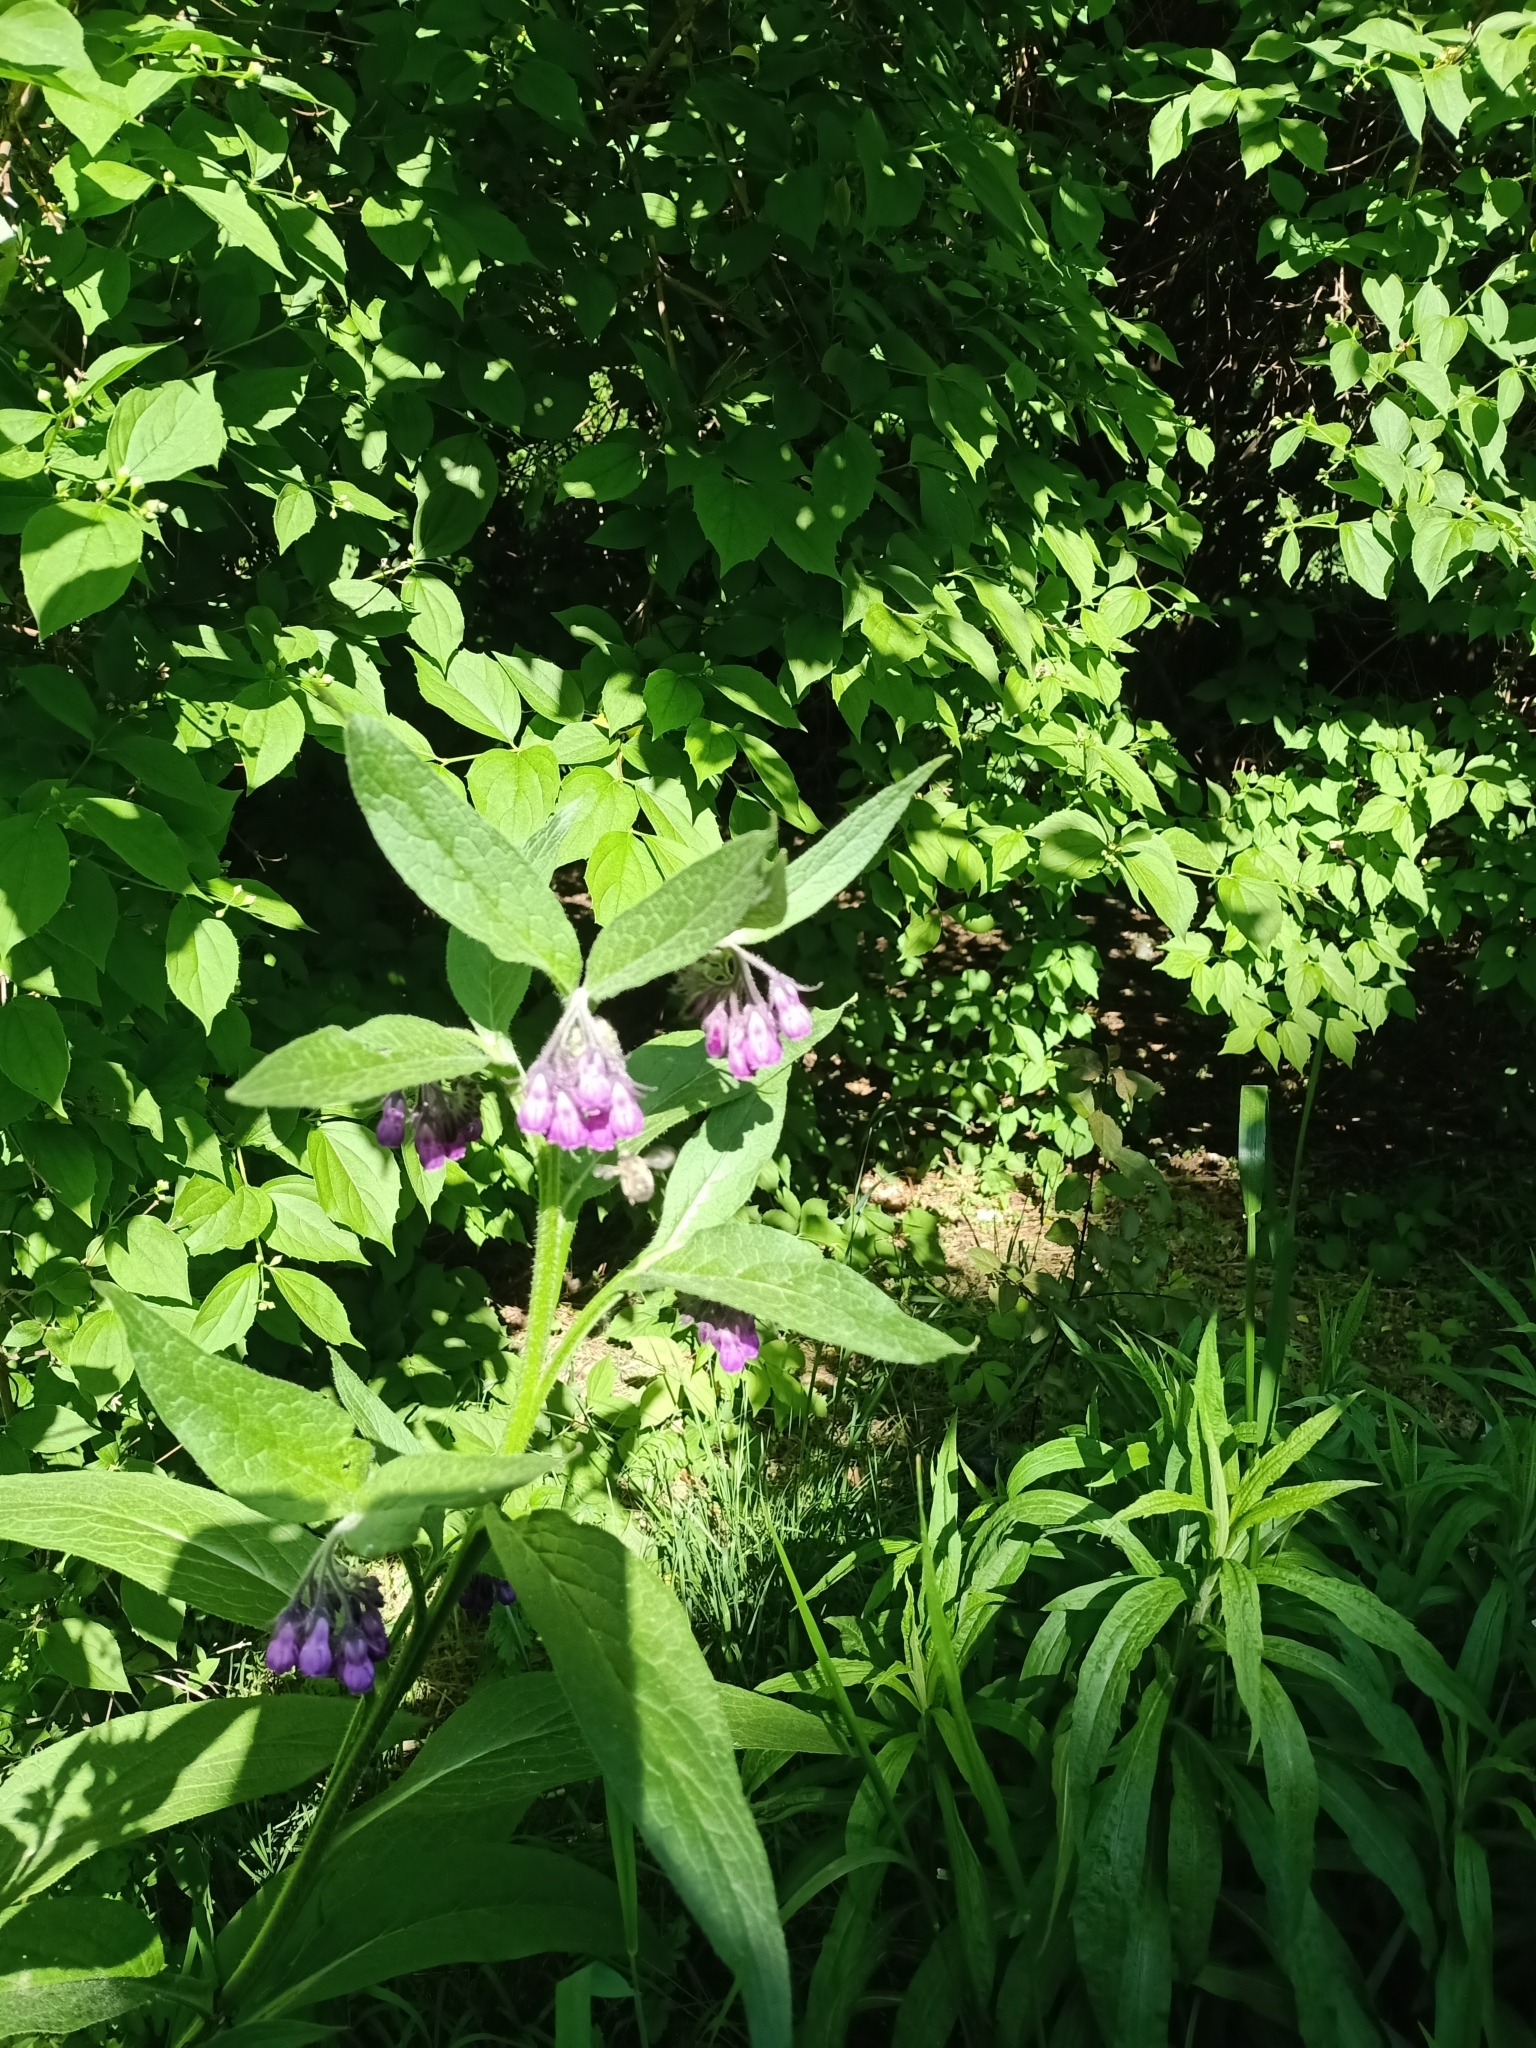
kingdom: Plantae
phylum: Tracheophyta
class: Magnoliopsida
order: Boraginales
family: Boraginaceae
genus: Symphytum
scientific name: Symphytum officinale
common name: Common comfrey
